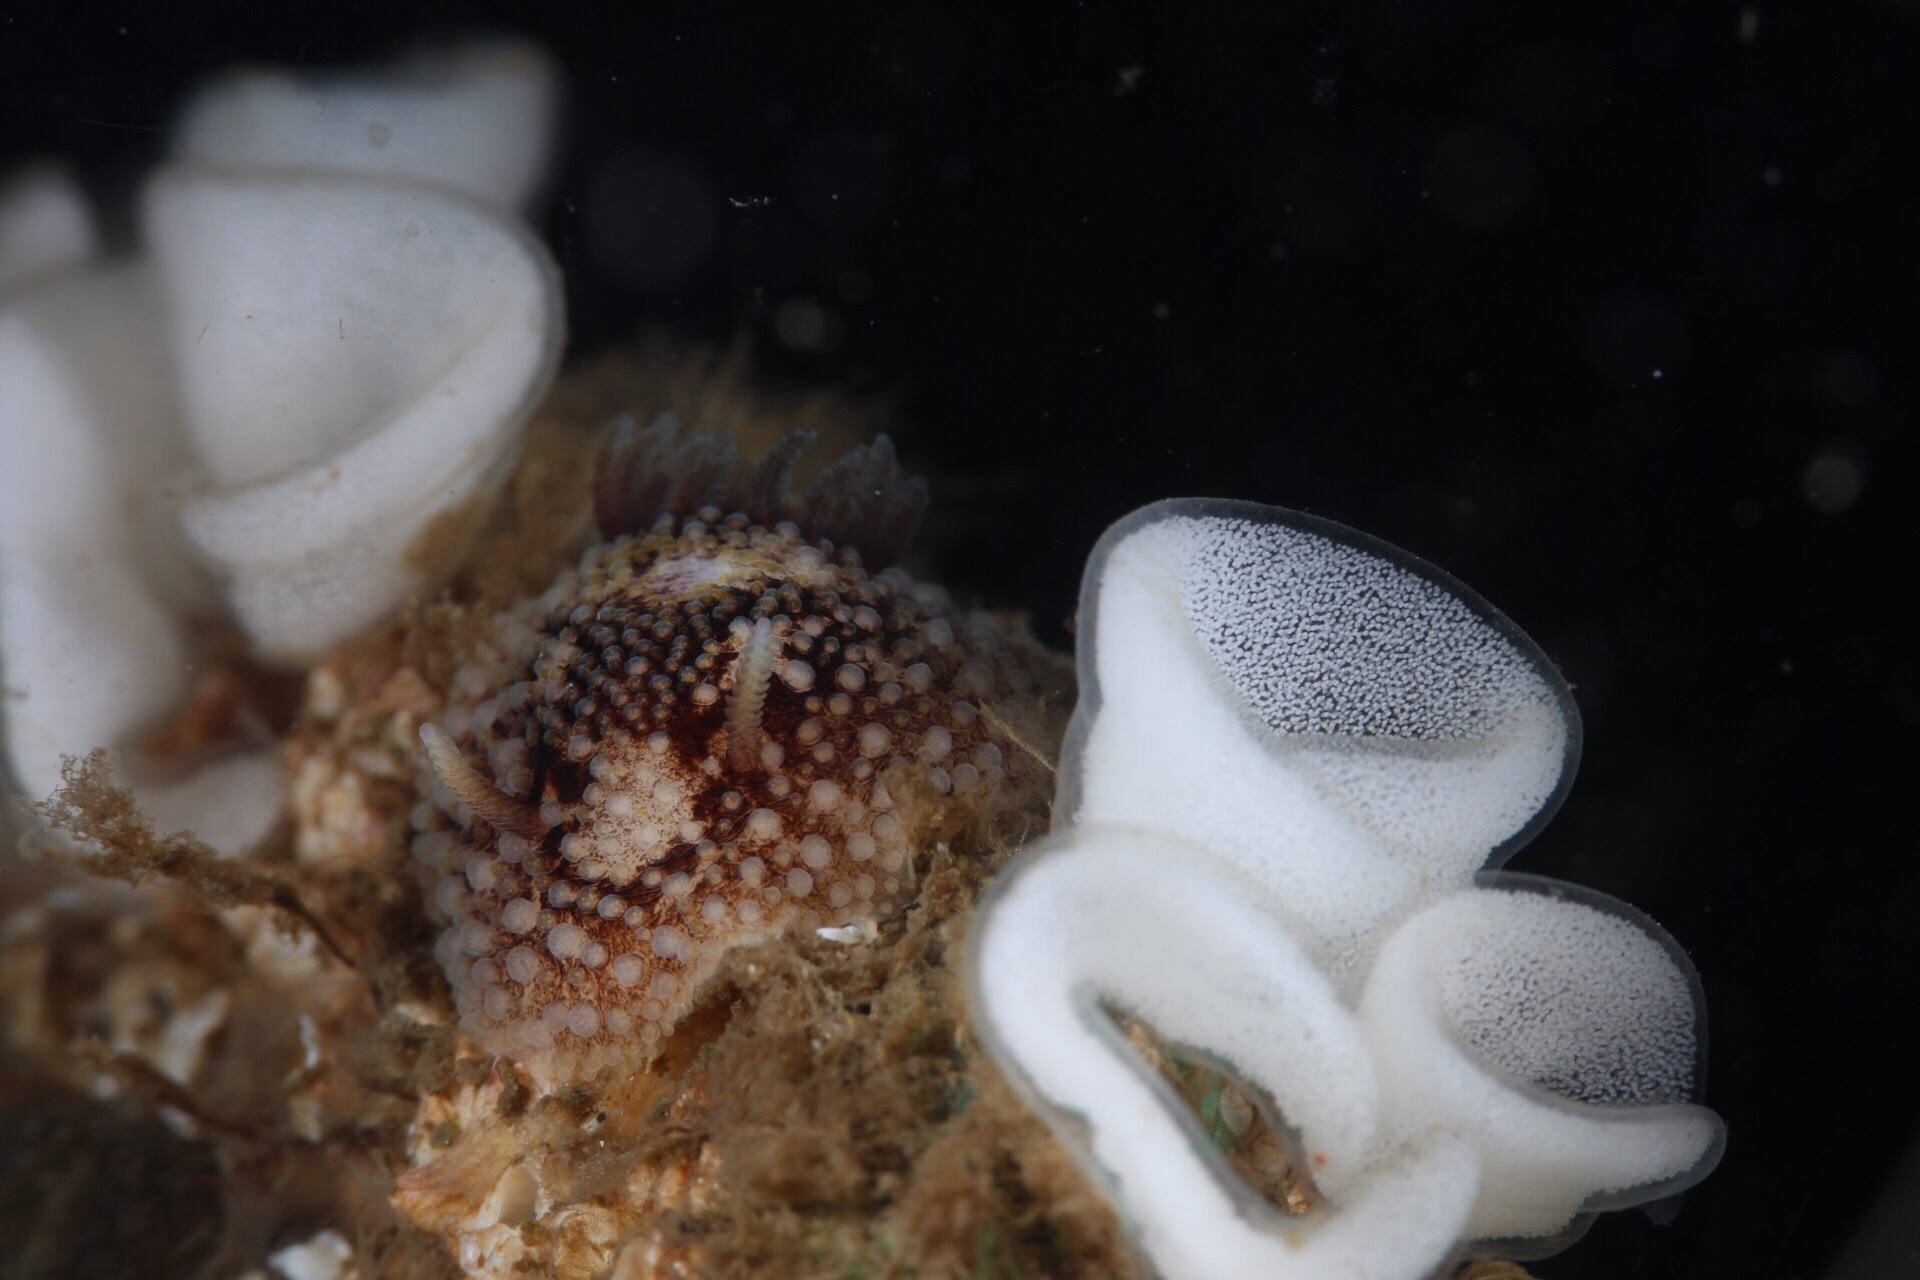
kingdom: Animalia
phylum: Mollusca
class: Gastropoda
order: Nudibranchia
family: Onchidorididae
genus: Onchidoris
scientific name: Onchidoris bilamellata
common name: Barnacle-eating onchidoris
